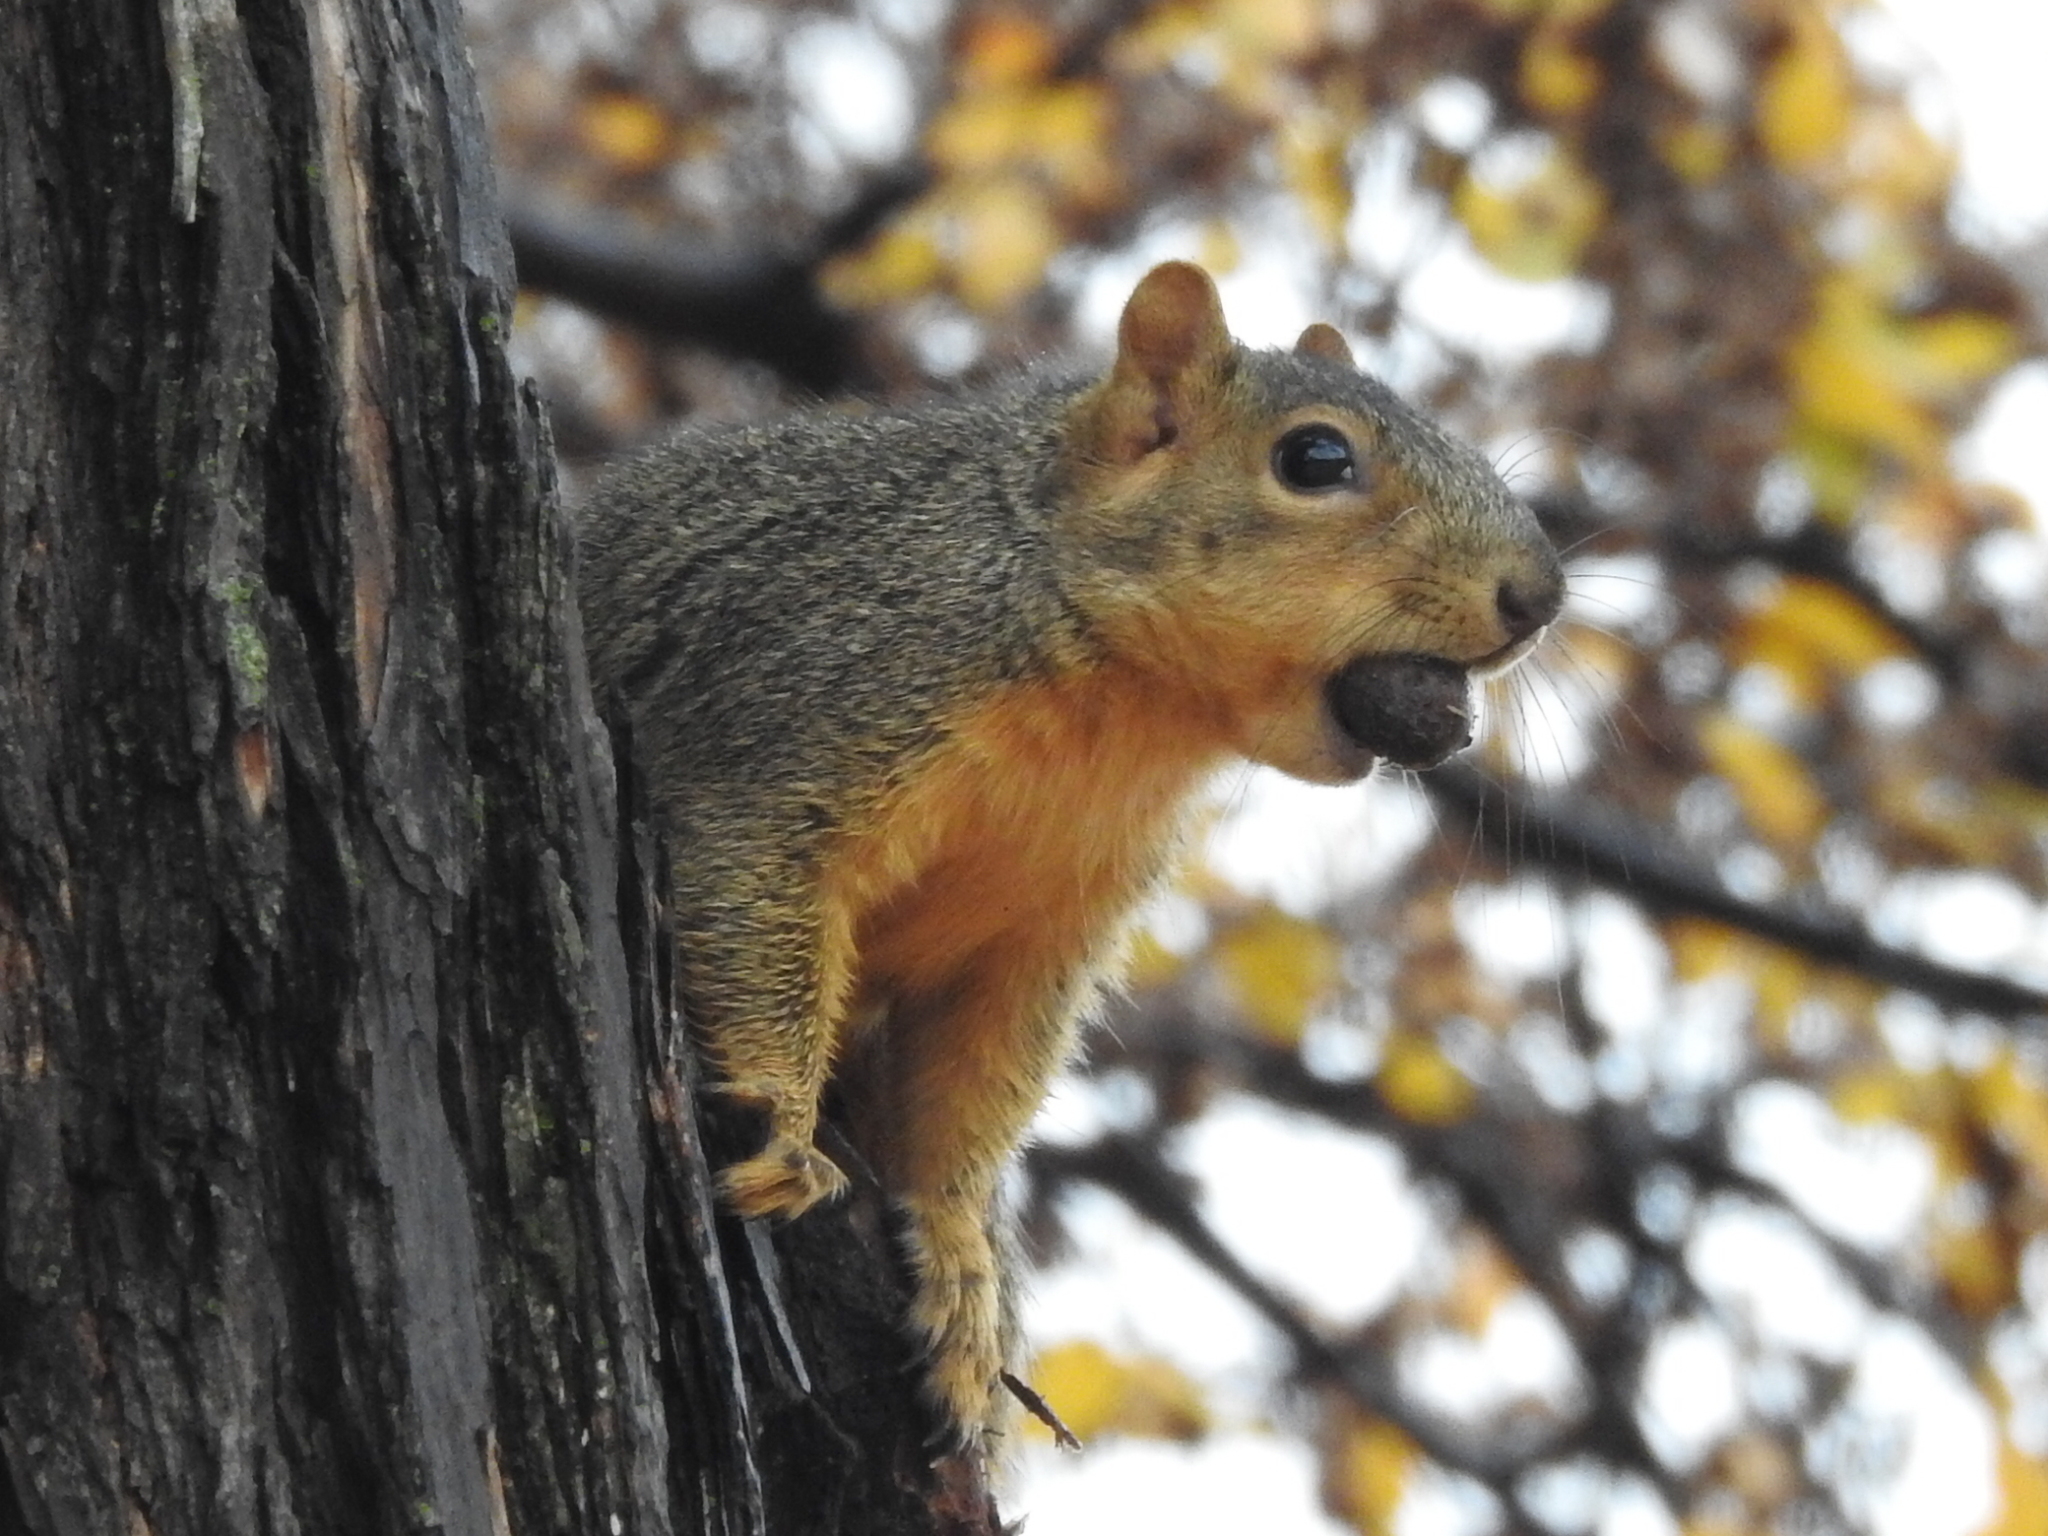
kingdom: Animalia
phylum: Chordata
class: Mammalia
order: Rodentia
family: Sciuridae
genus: Sciurus
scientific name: Sciurus niger
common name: Fox squirrel
